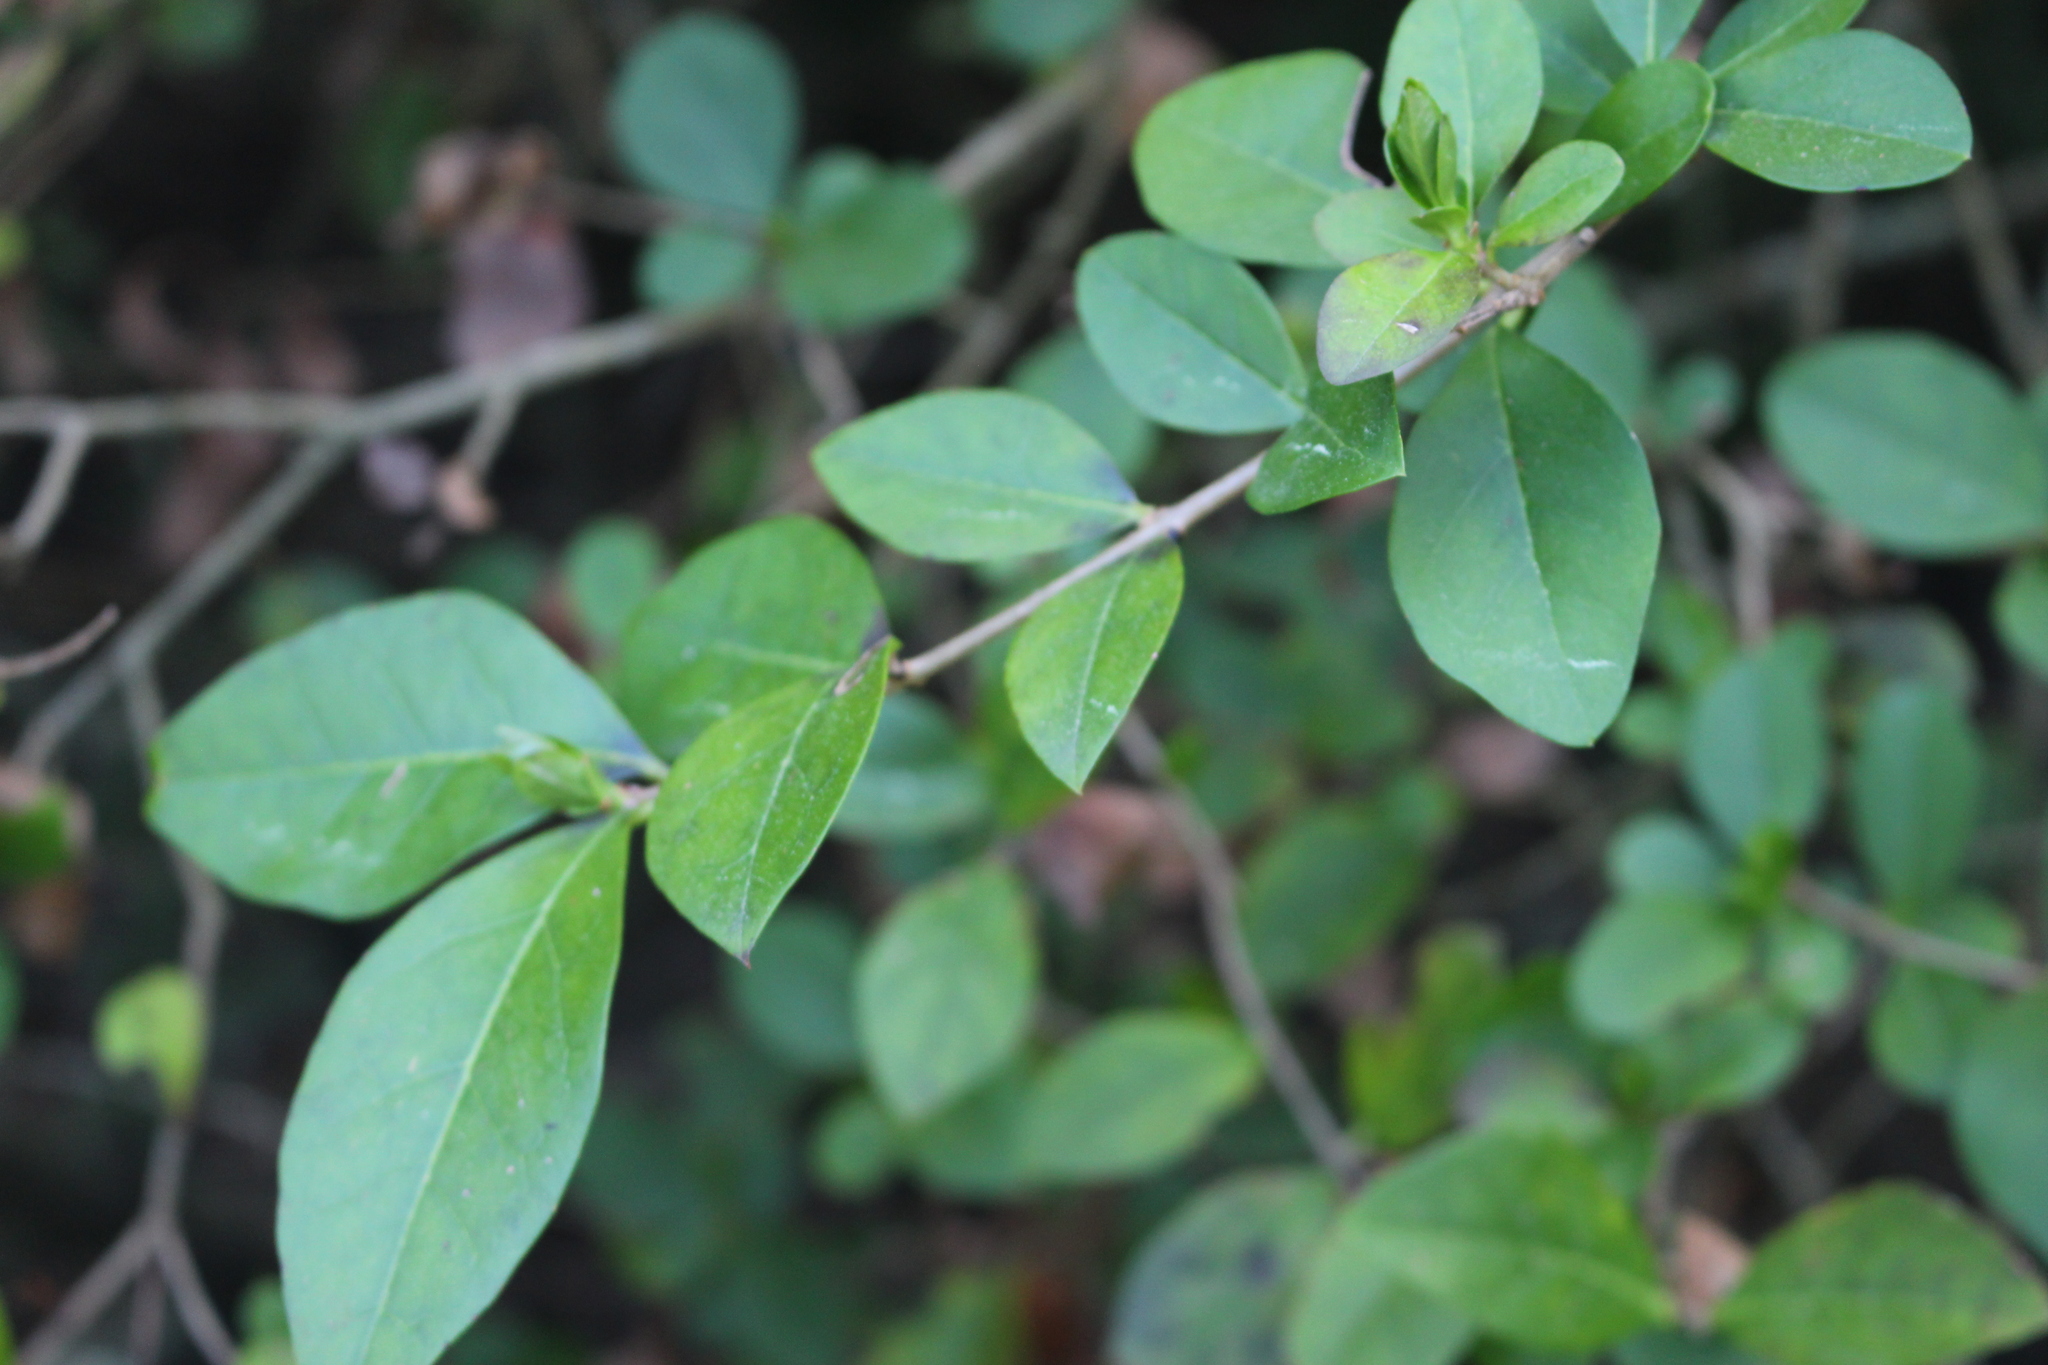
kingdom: Plantae
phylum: Tracheophyta
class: Magnoliopsida
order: Lamiales
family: Oleaceae
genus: Ligustrum
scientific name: Ligustrum vulgare
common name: Wild privet
